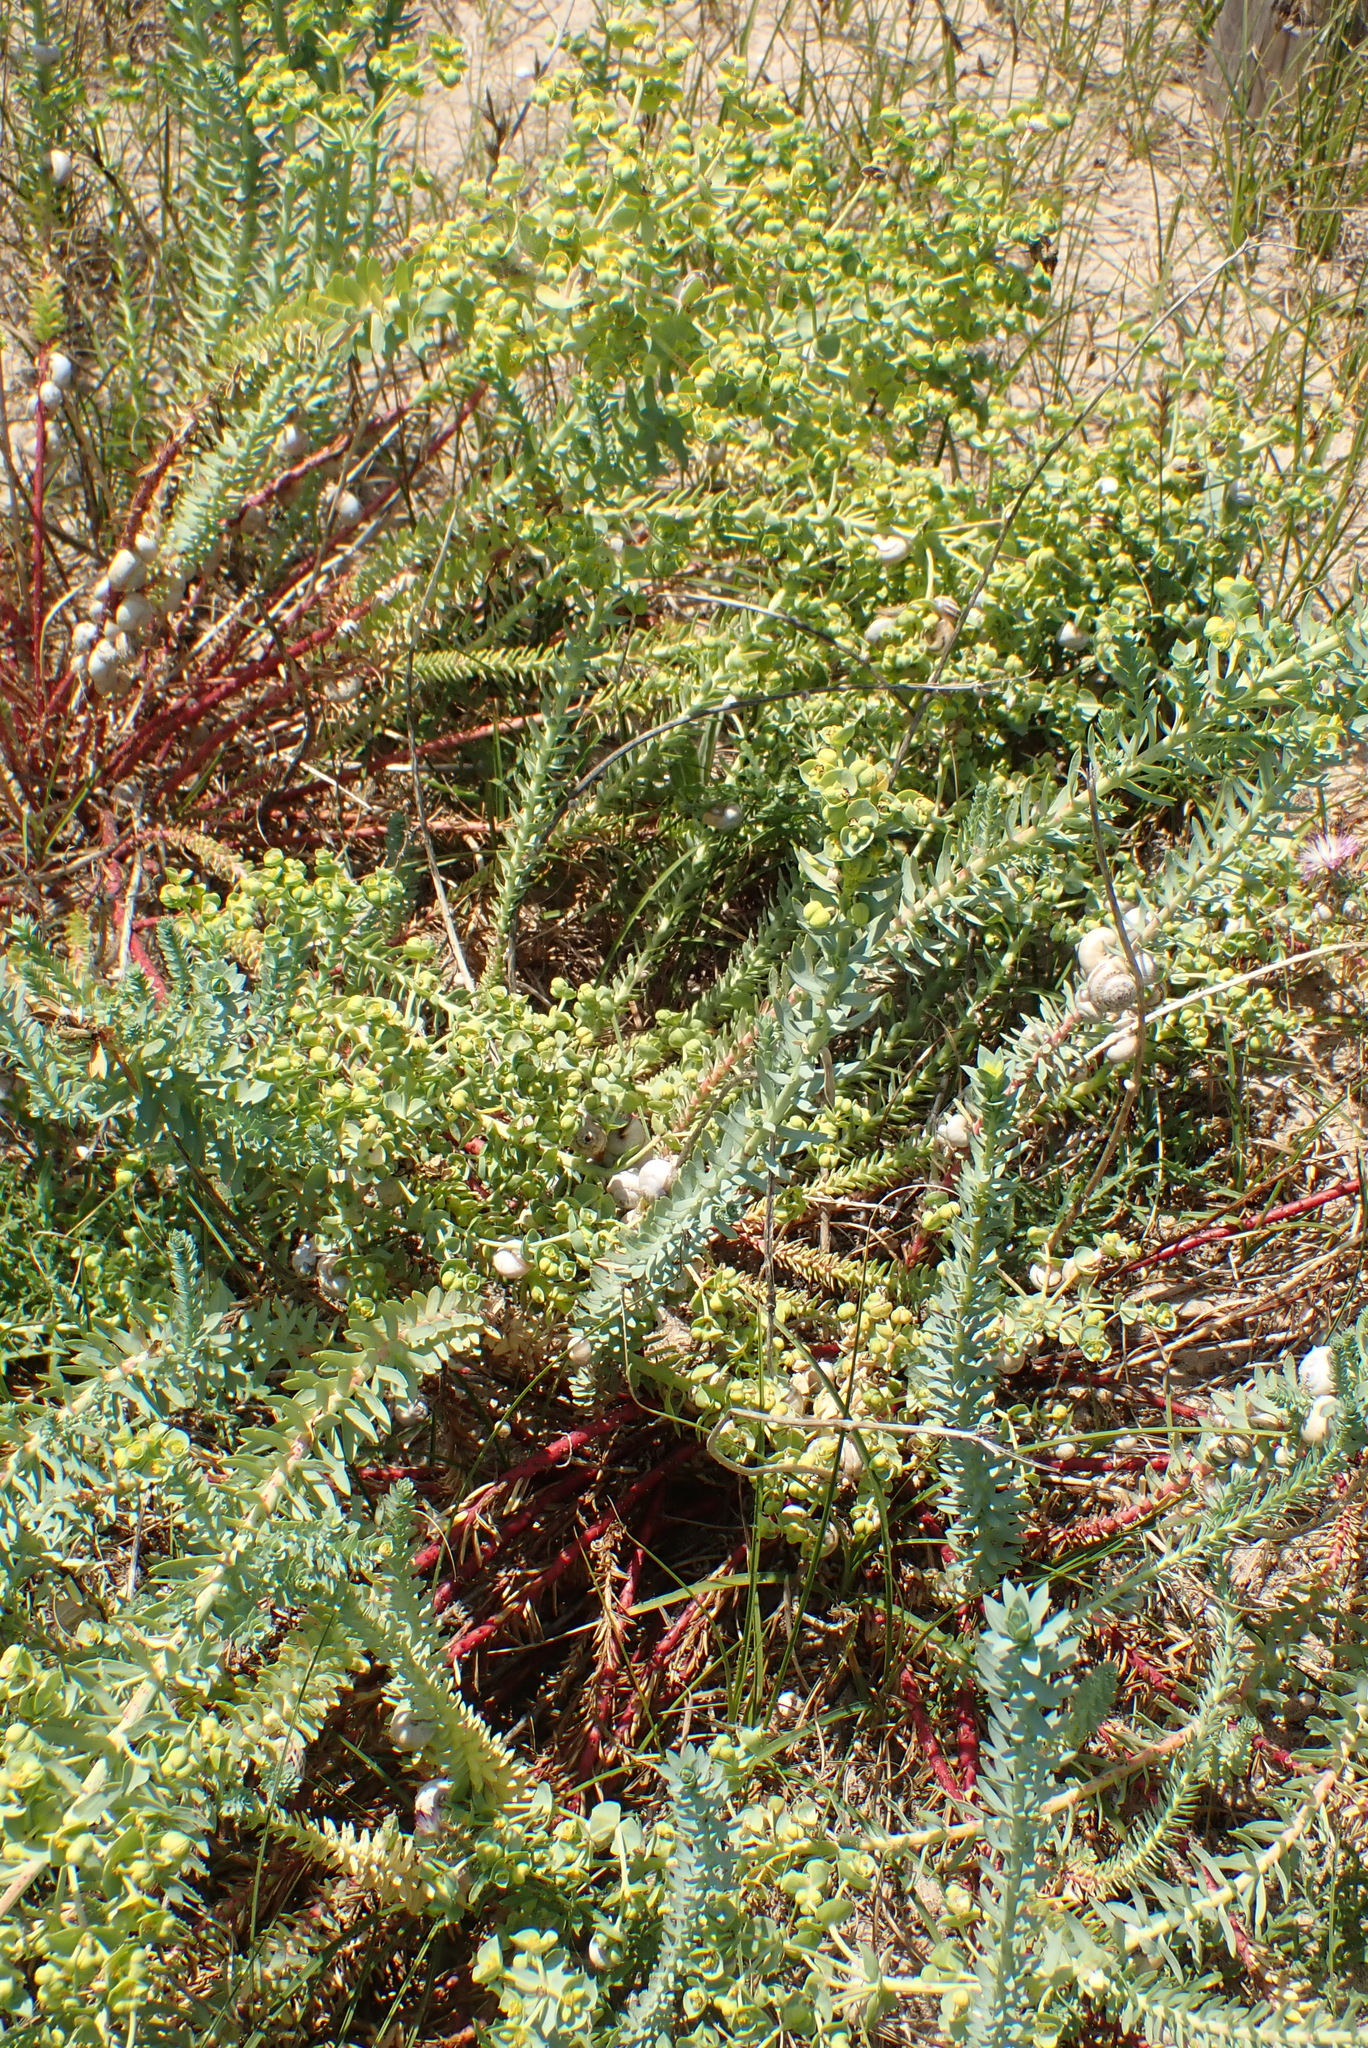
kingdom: Plantae
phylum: Tracheophyta
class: Magnoliopsida
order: Malpighiales
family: Euphorbiaceae
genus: Euphorbia
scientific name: Euphorbia paralias
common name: Sea spurge
